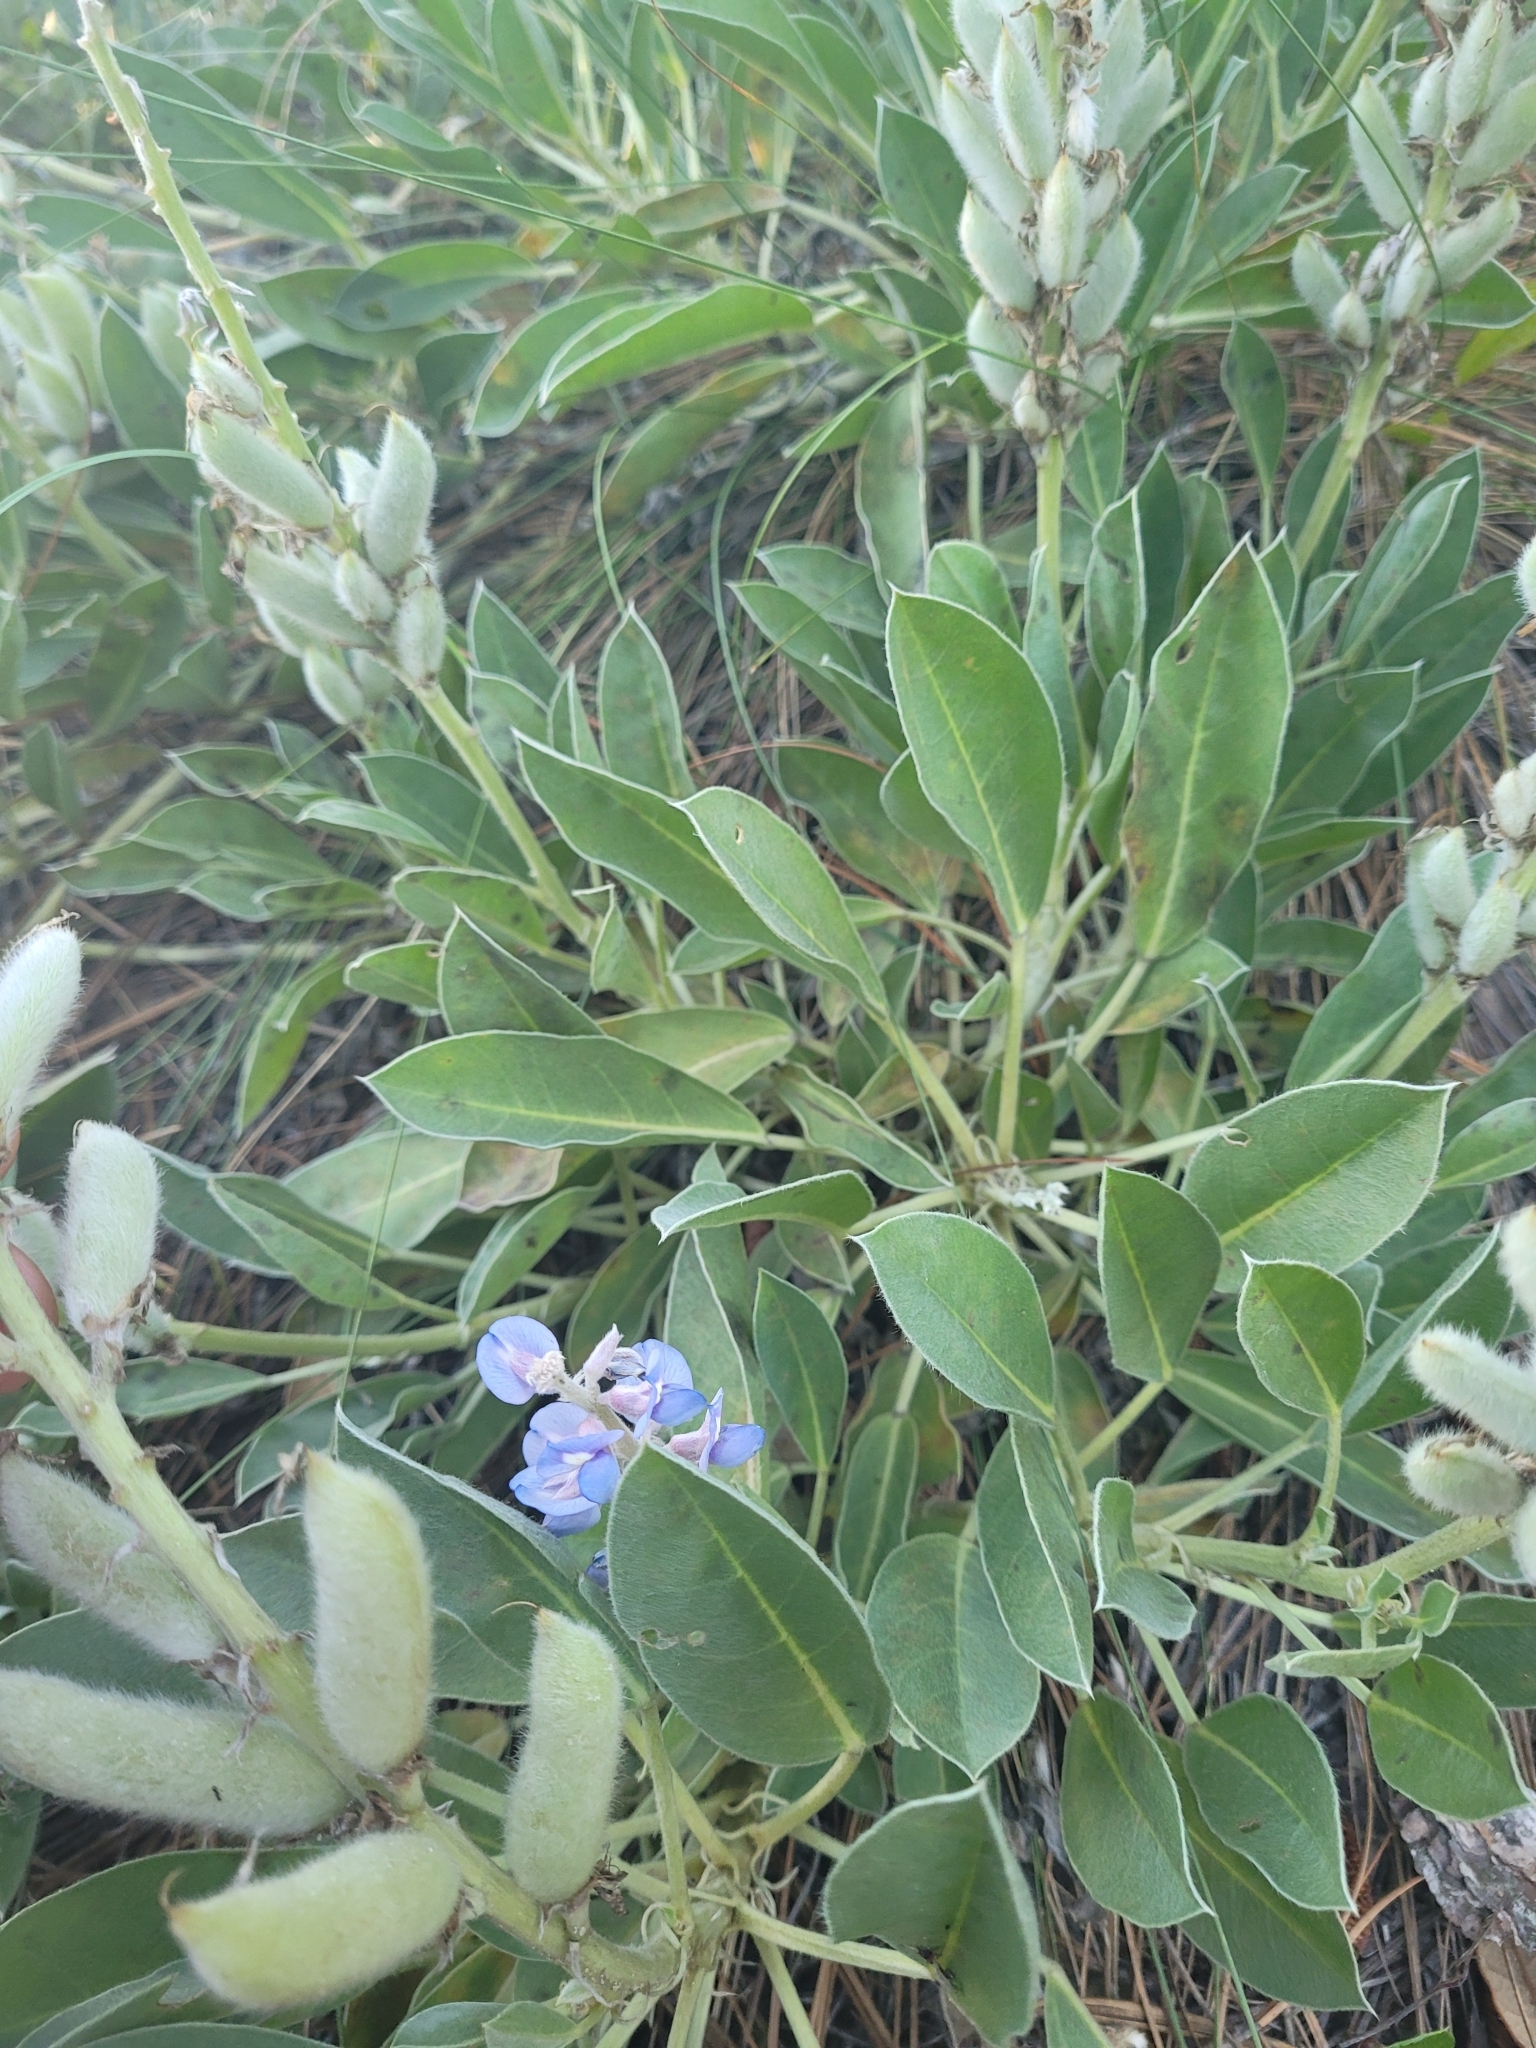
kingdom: Plantae
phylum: Tracheophyta
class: Magnoliopsida
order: Fabales
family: Fabaceae
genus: Lupinus
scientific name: Lupinus
